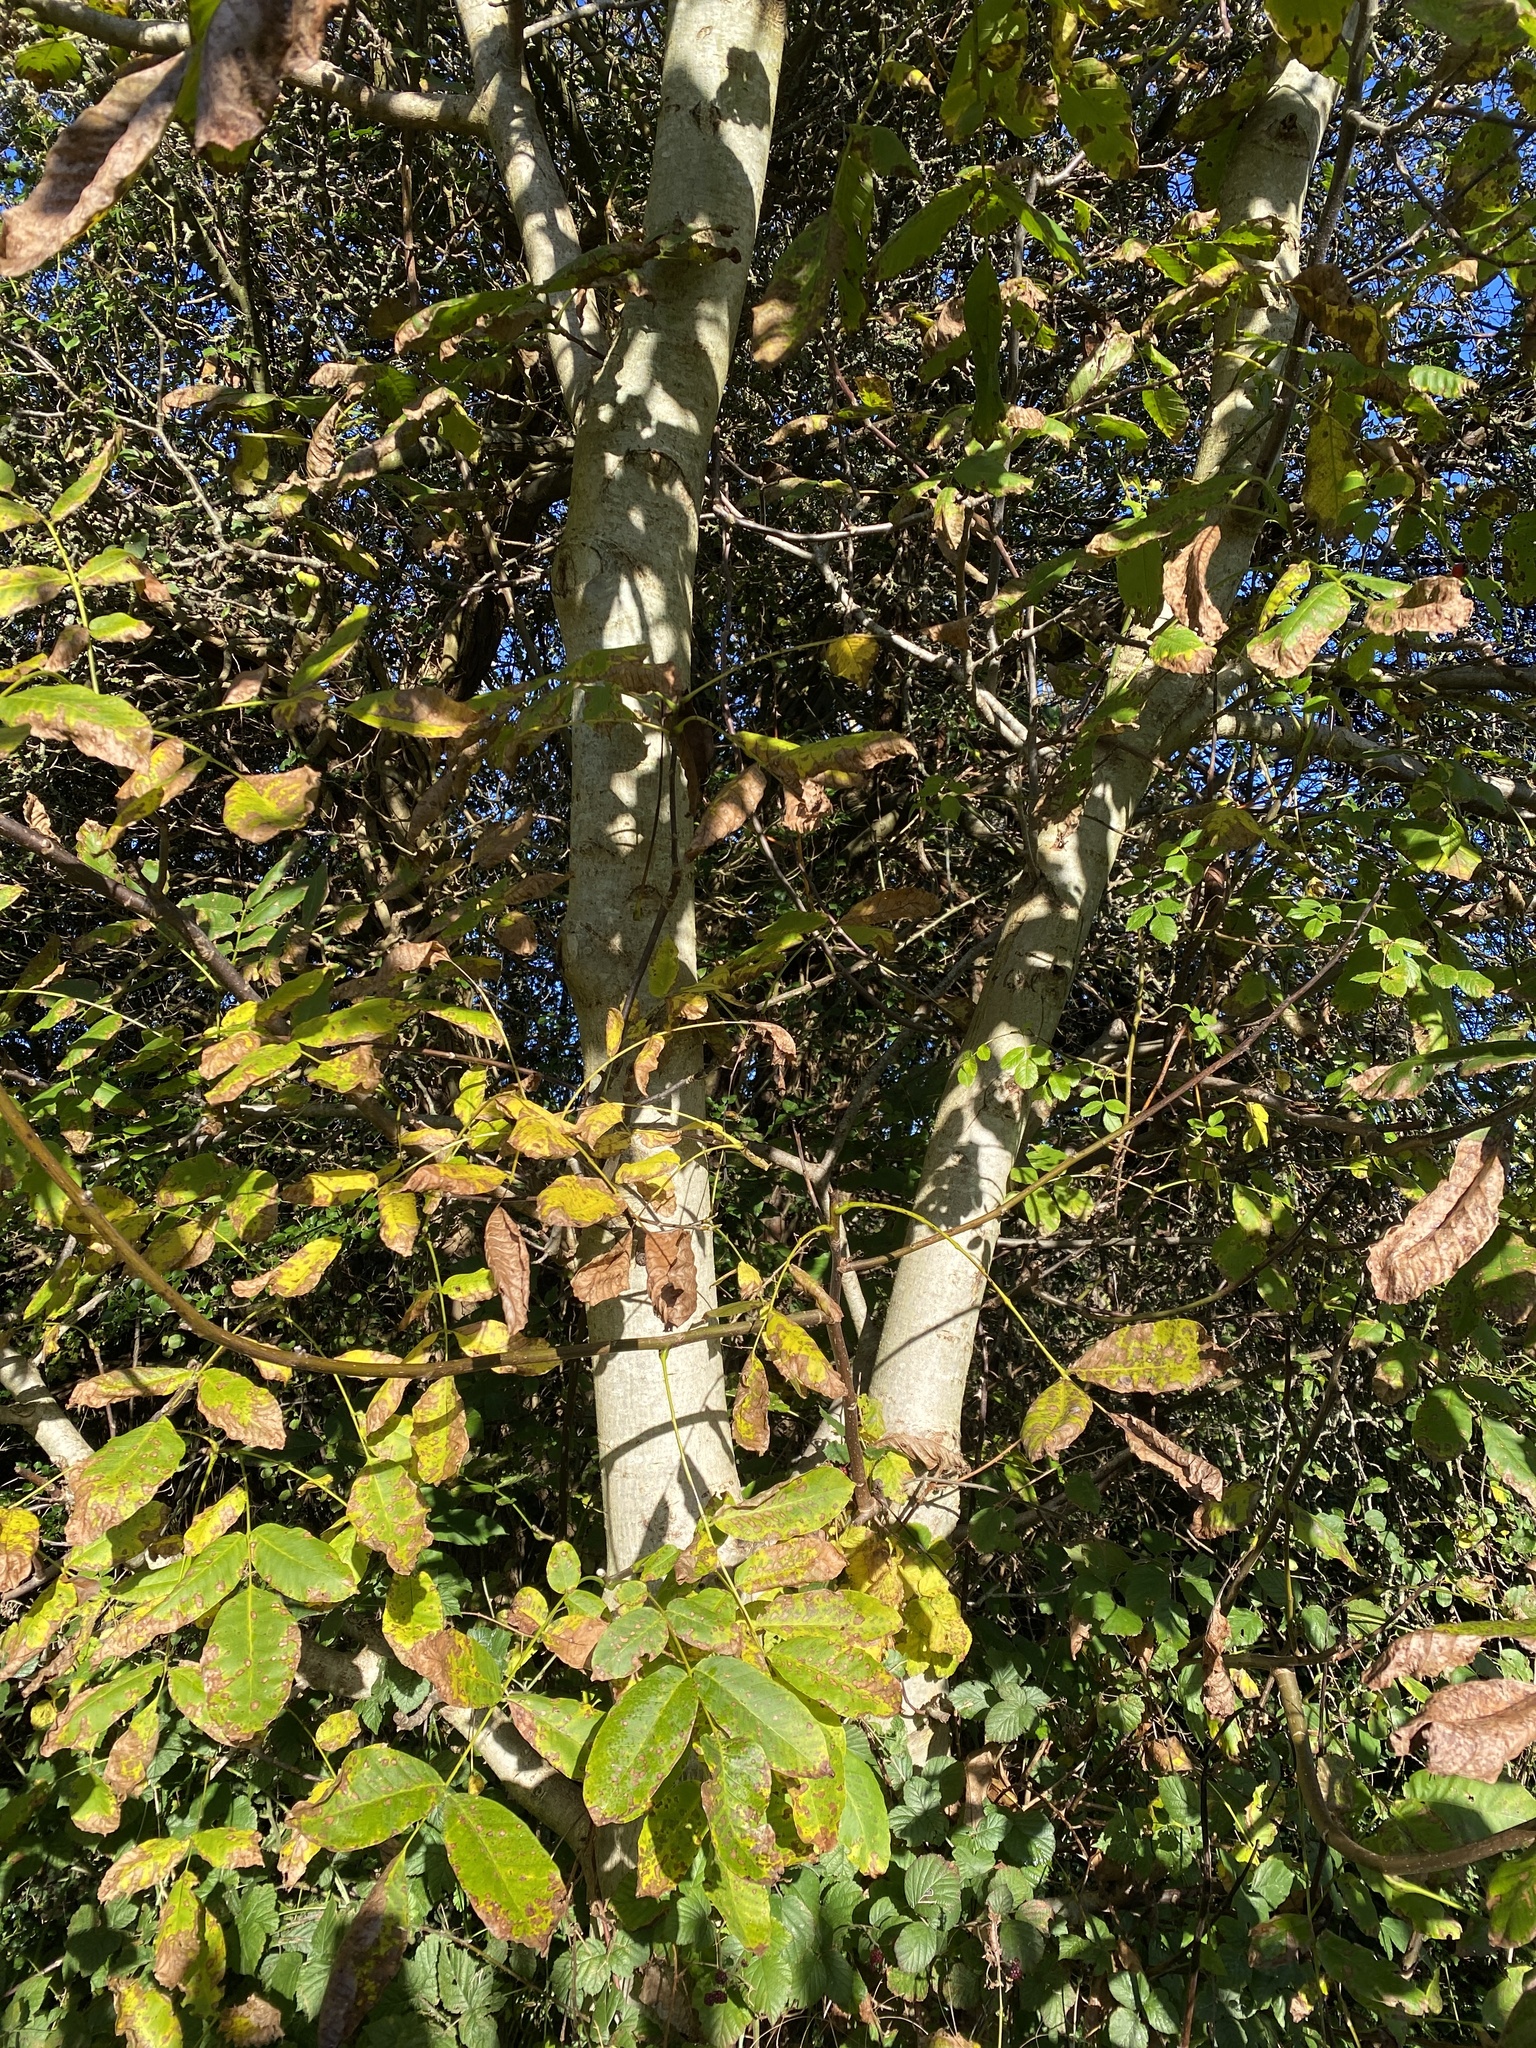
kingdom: Plantae
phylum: Tracheophyta
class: Magnoliopsida
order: Fagales
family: Juglandaceae
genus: Juglans
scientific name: Juglans regia
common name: Walnut
